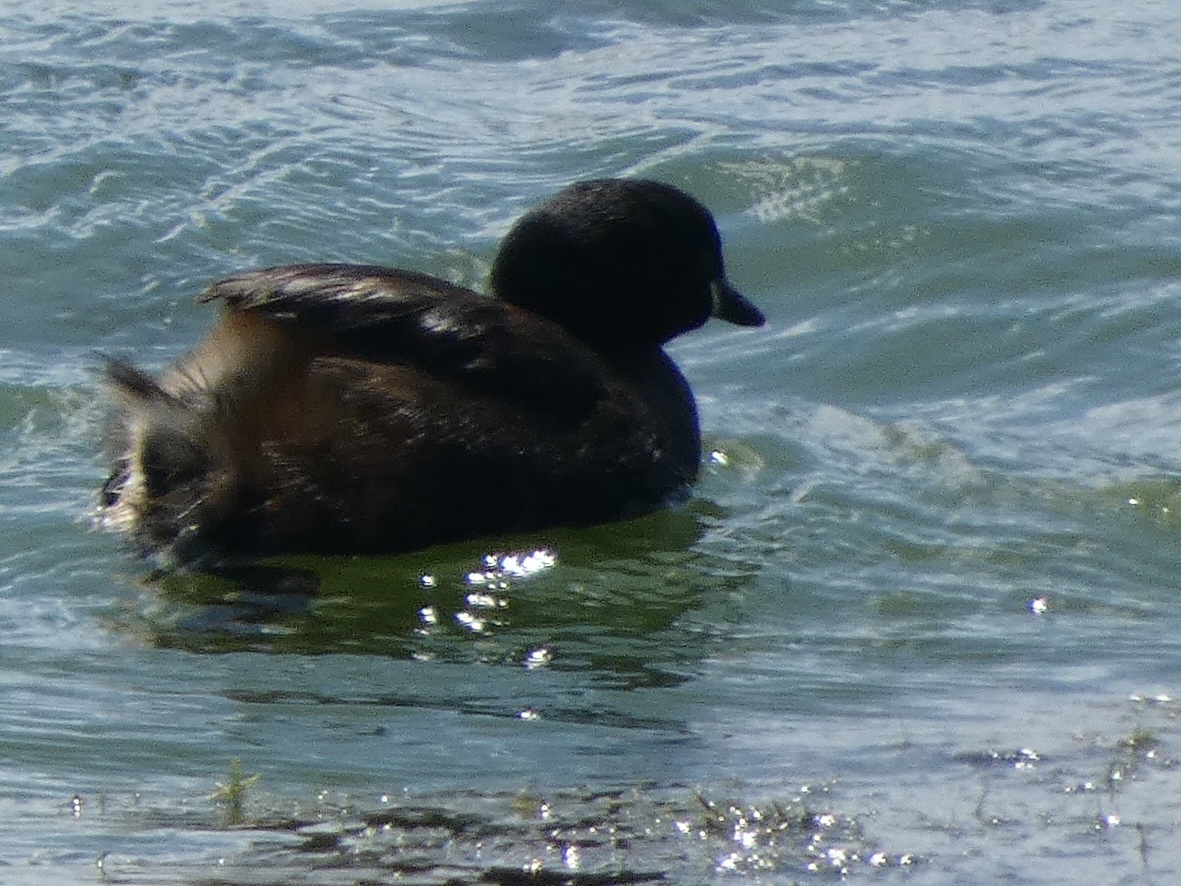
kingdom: Animalia
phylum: Chordata
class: Aves
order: Podicipediformes
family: Podicipedidae
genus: Tachybaptus
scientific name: Tachybaptus ruficollis
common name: Little grebe
